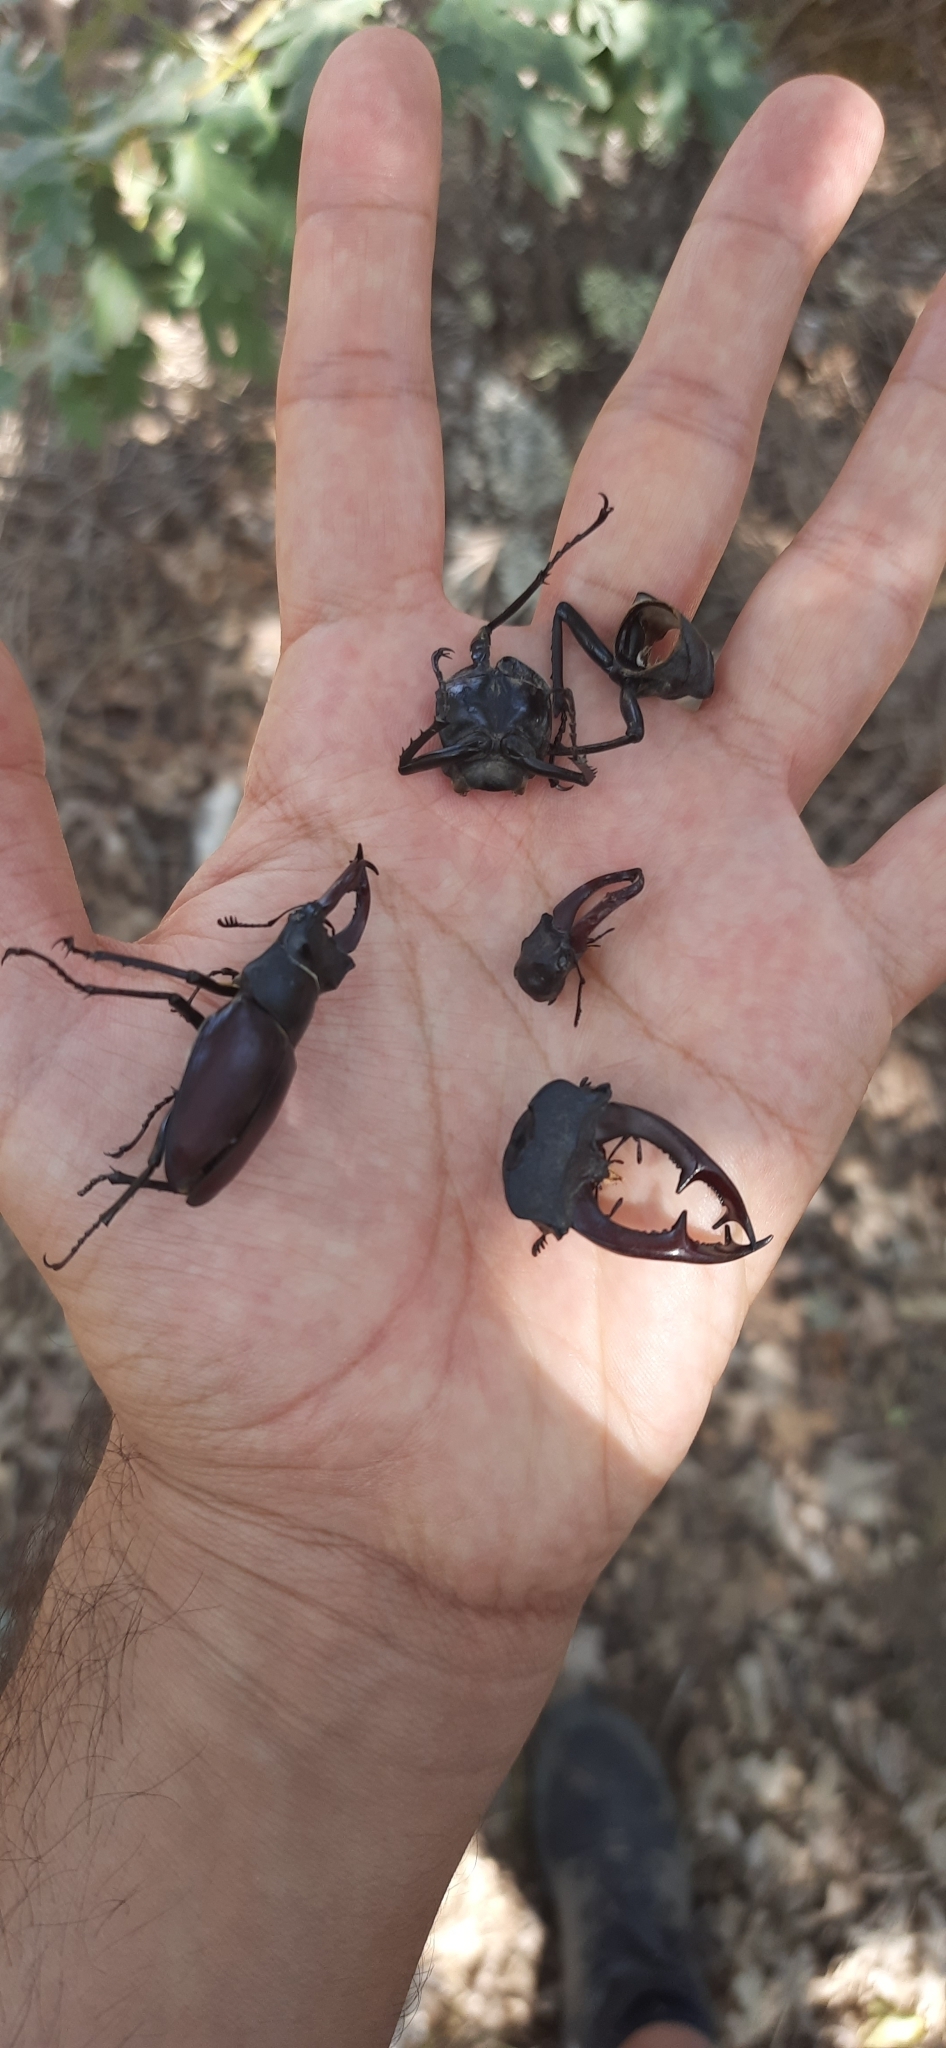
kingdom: Animalia
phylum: Arthropoda
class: Insecta
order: Coleoptera
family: Lucanidae
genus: Lucanus
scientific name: Lucanus cervus
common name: Stag beetle
